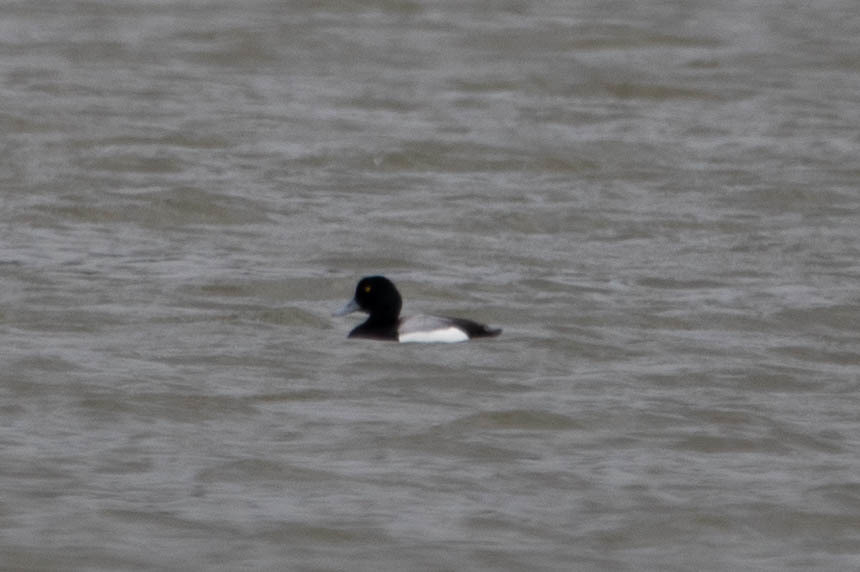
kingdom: Animalia
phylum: Chordata
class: Aves
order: Anseriformes
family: Anatidae
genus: Aythya
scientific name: Aythya marila
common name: Greater scaup
